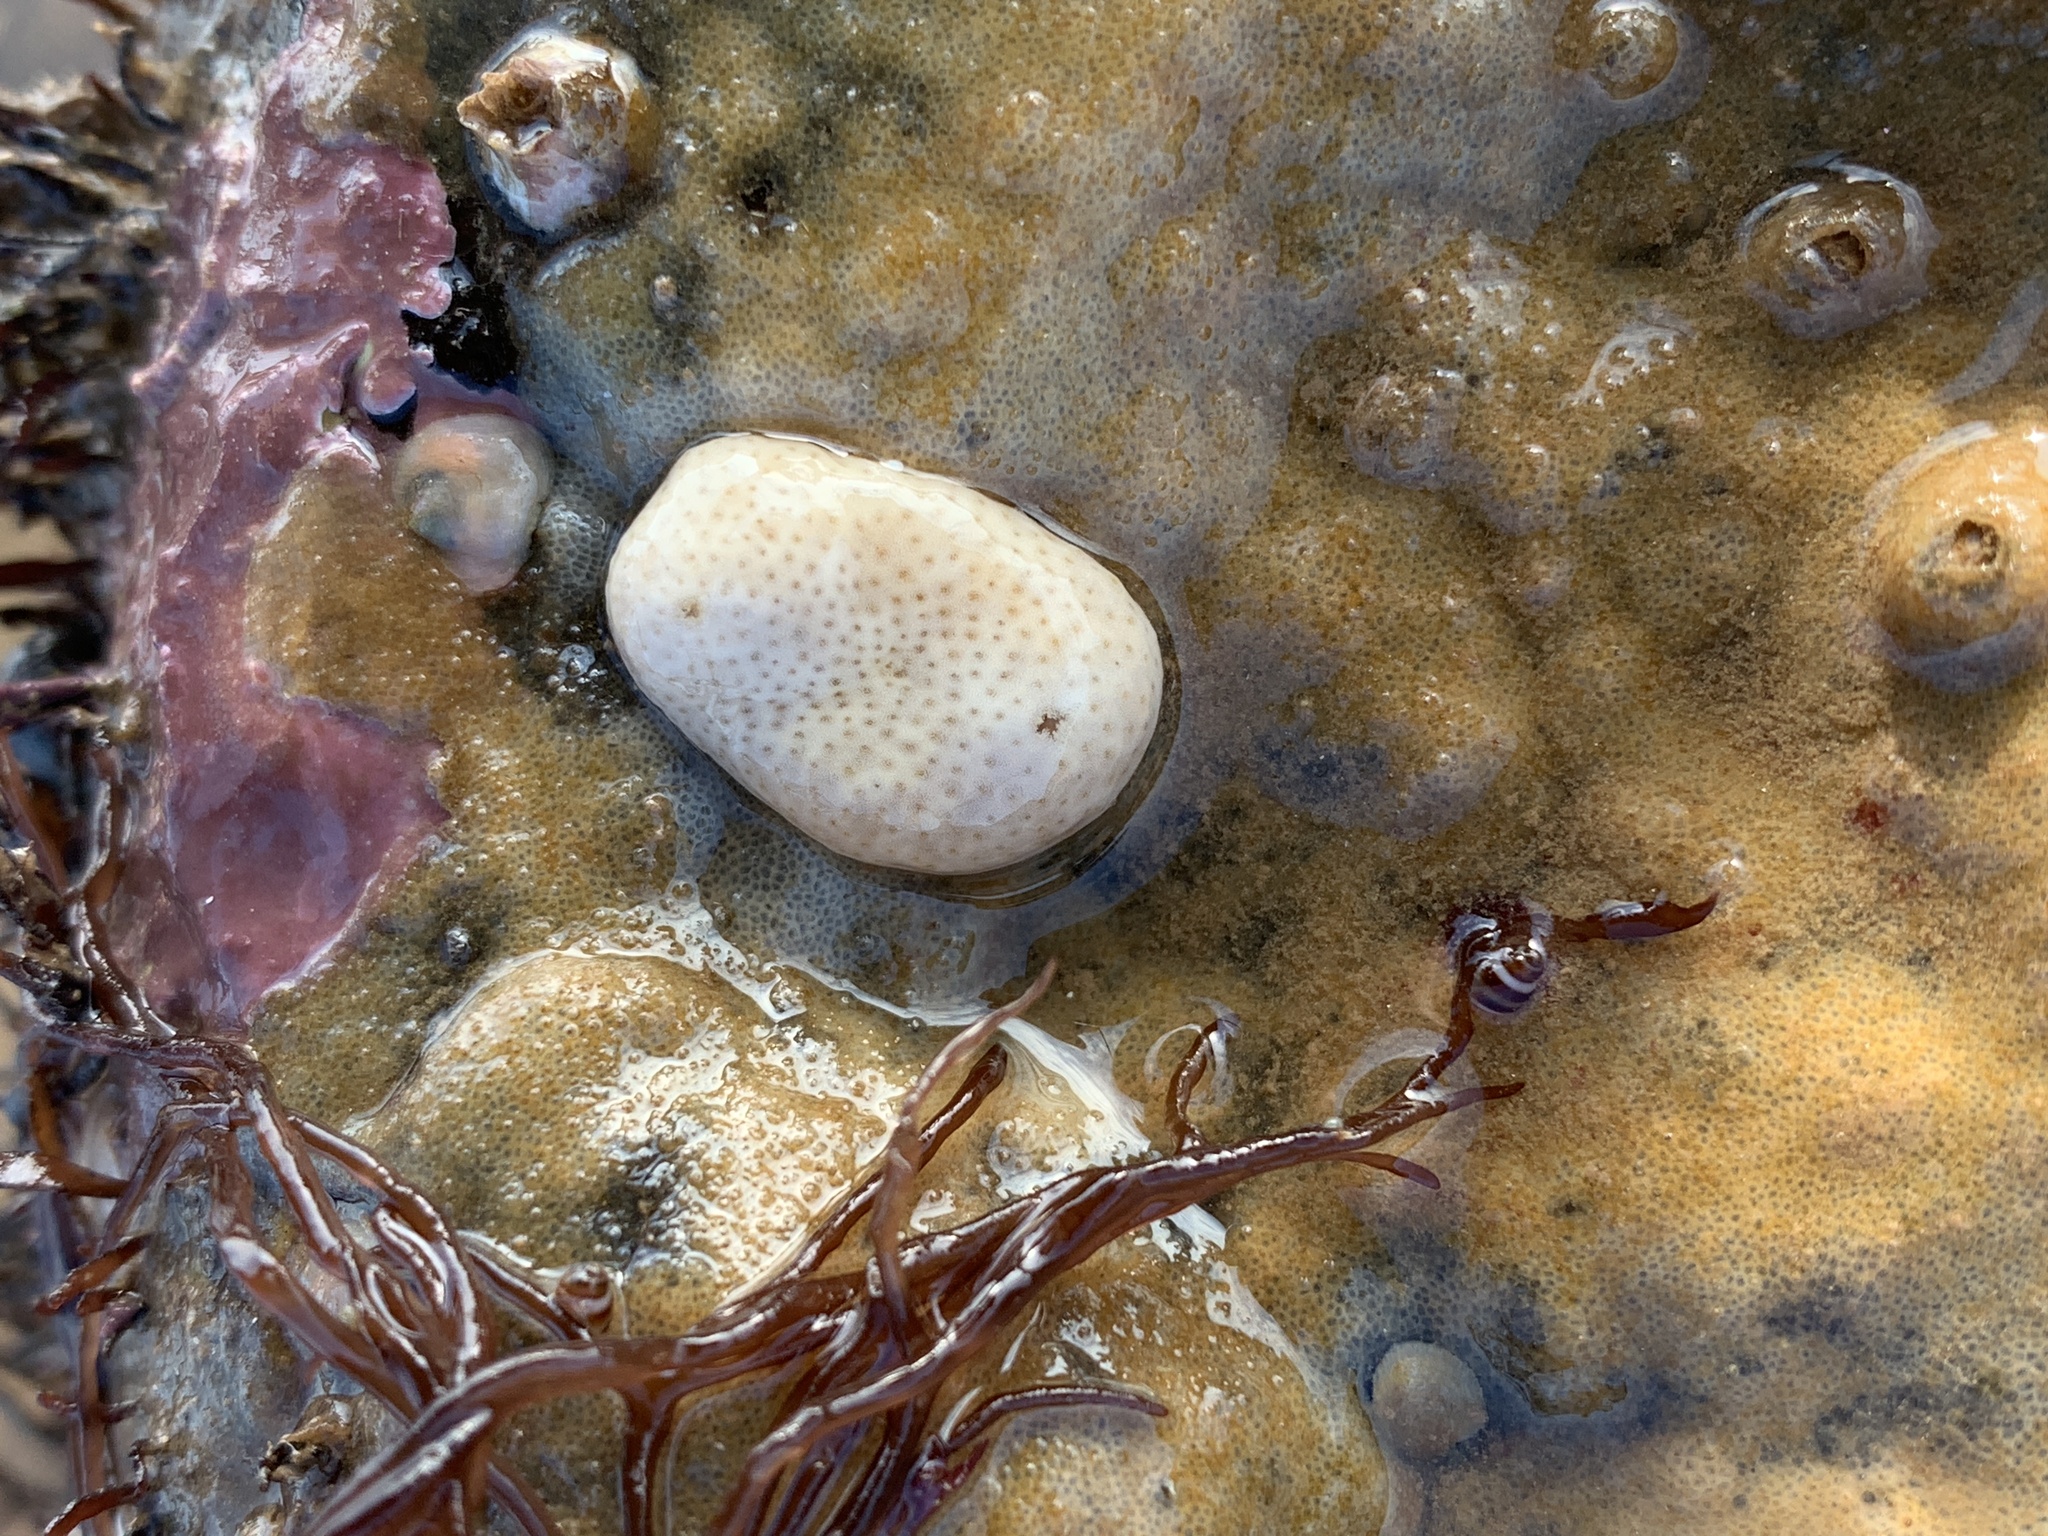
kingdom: Animalia
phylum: Chordata
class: Ascidiacea
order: Aplousobranchia
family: Didemnidae
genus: Didemnum
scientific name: Didemnum albidum
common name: Northern white crust
